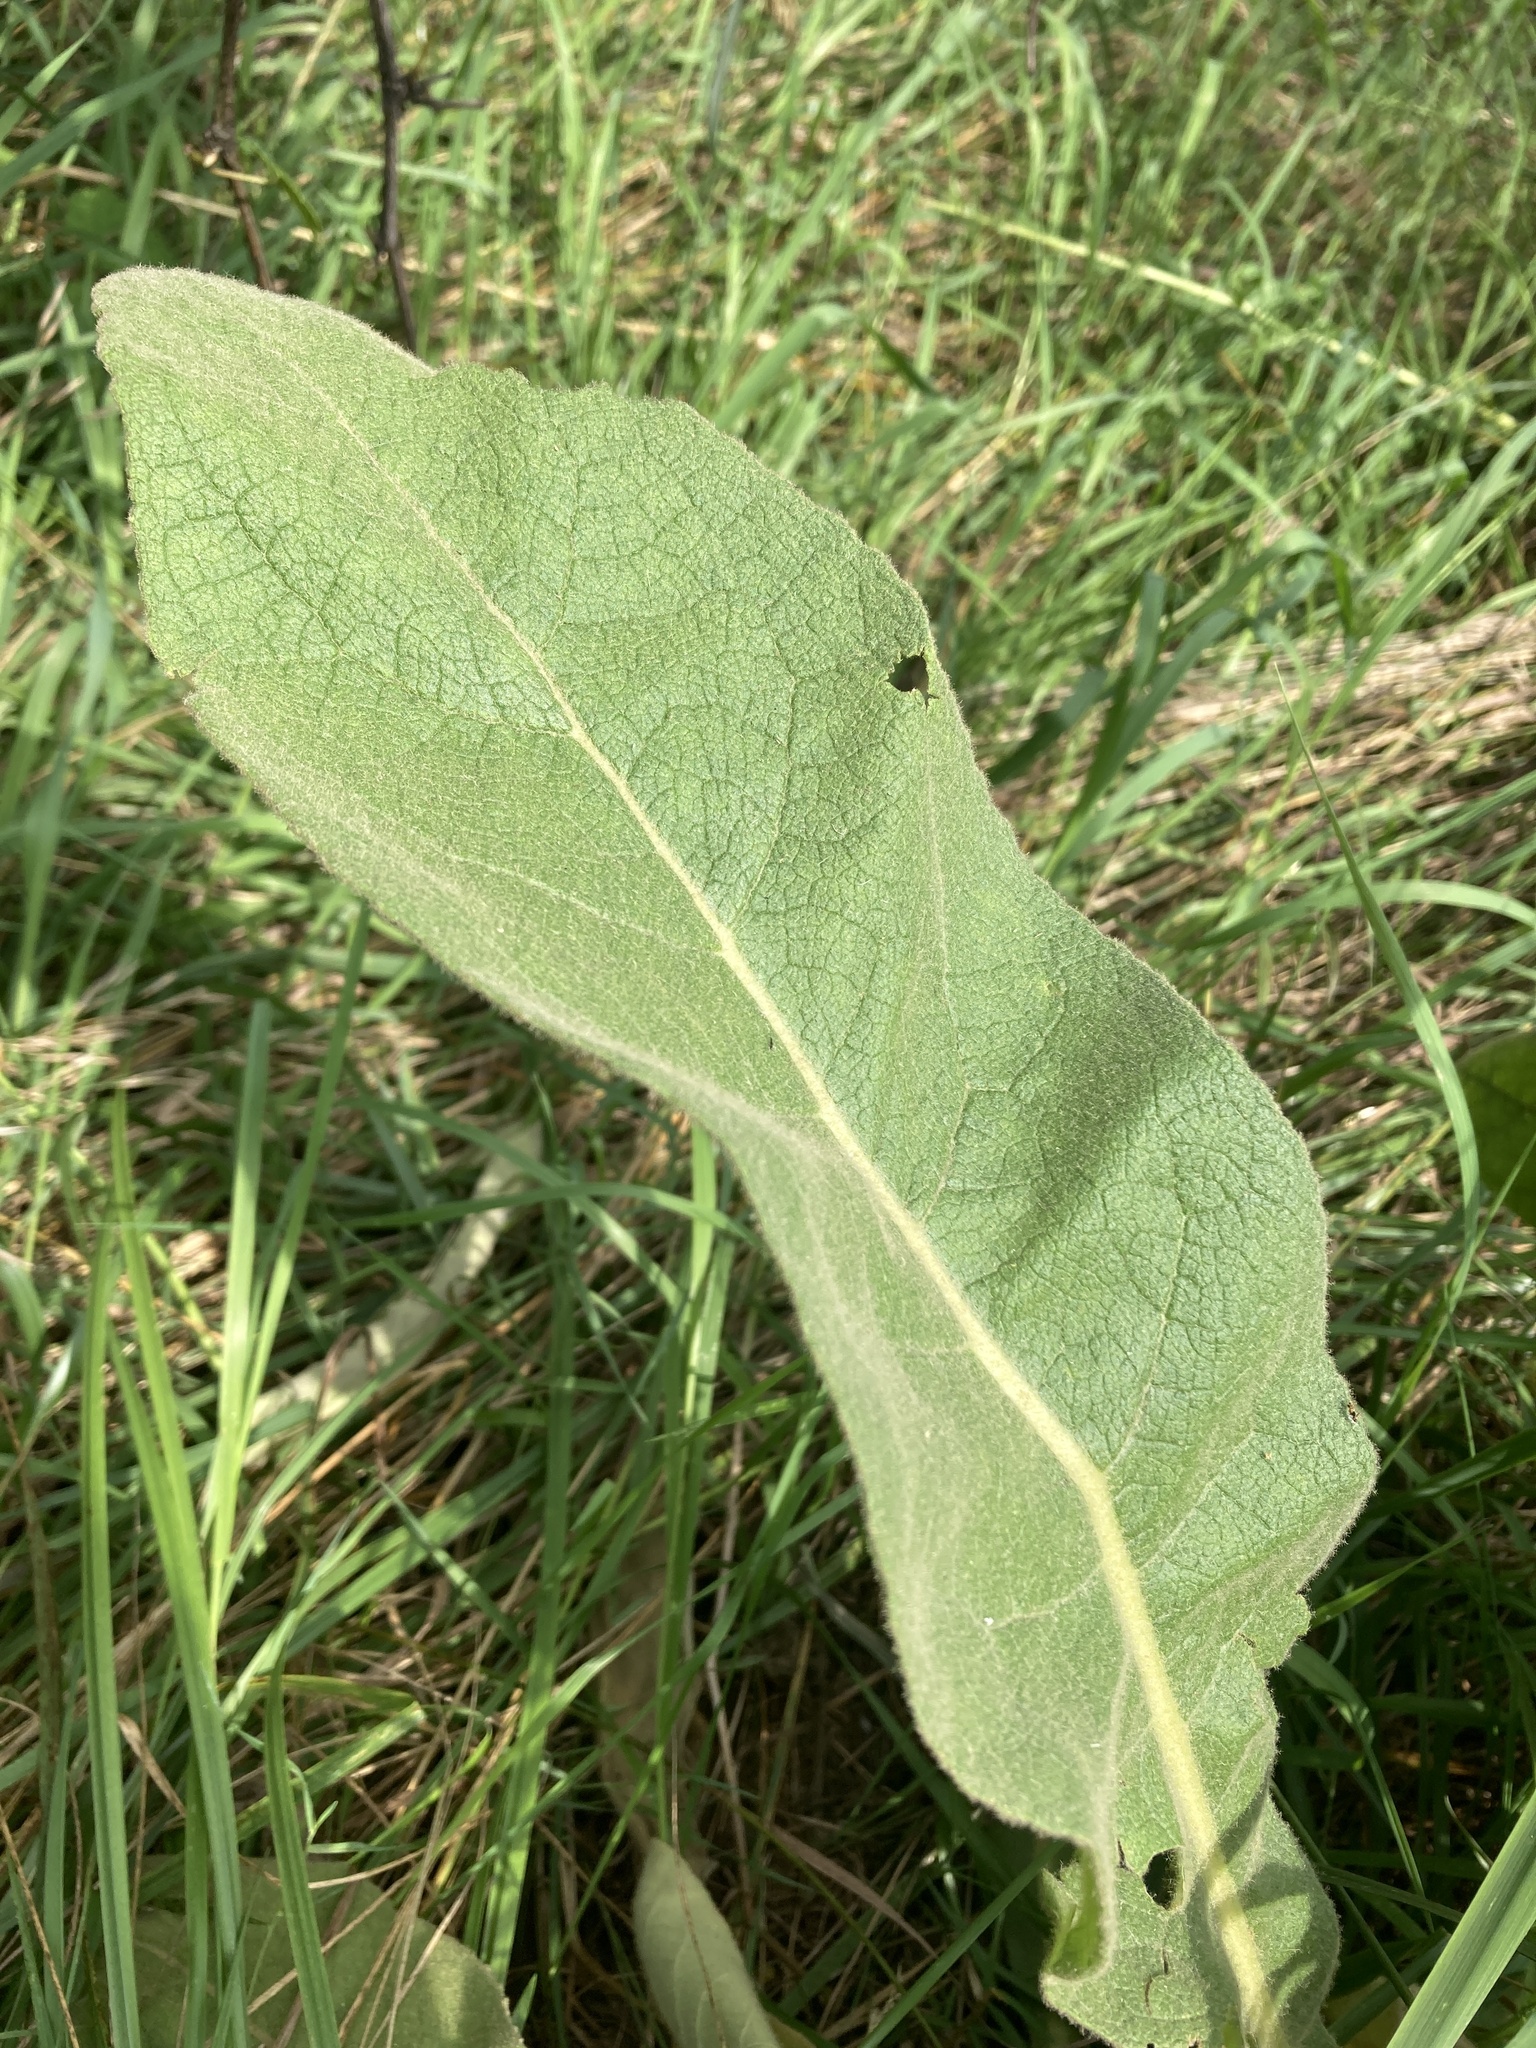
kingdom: Plantae
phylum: Tracheophyta
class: Magnoliopsida
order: Lamiales
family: Scrophulariaceae
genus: Verbascum
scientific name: Verbascum thapsus
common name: Common mullein
